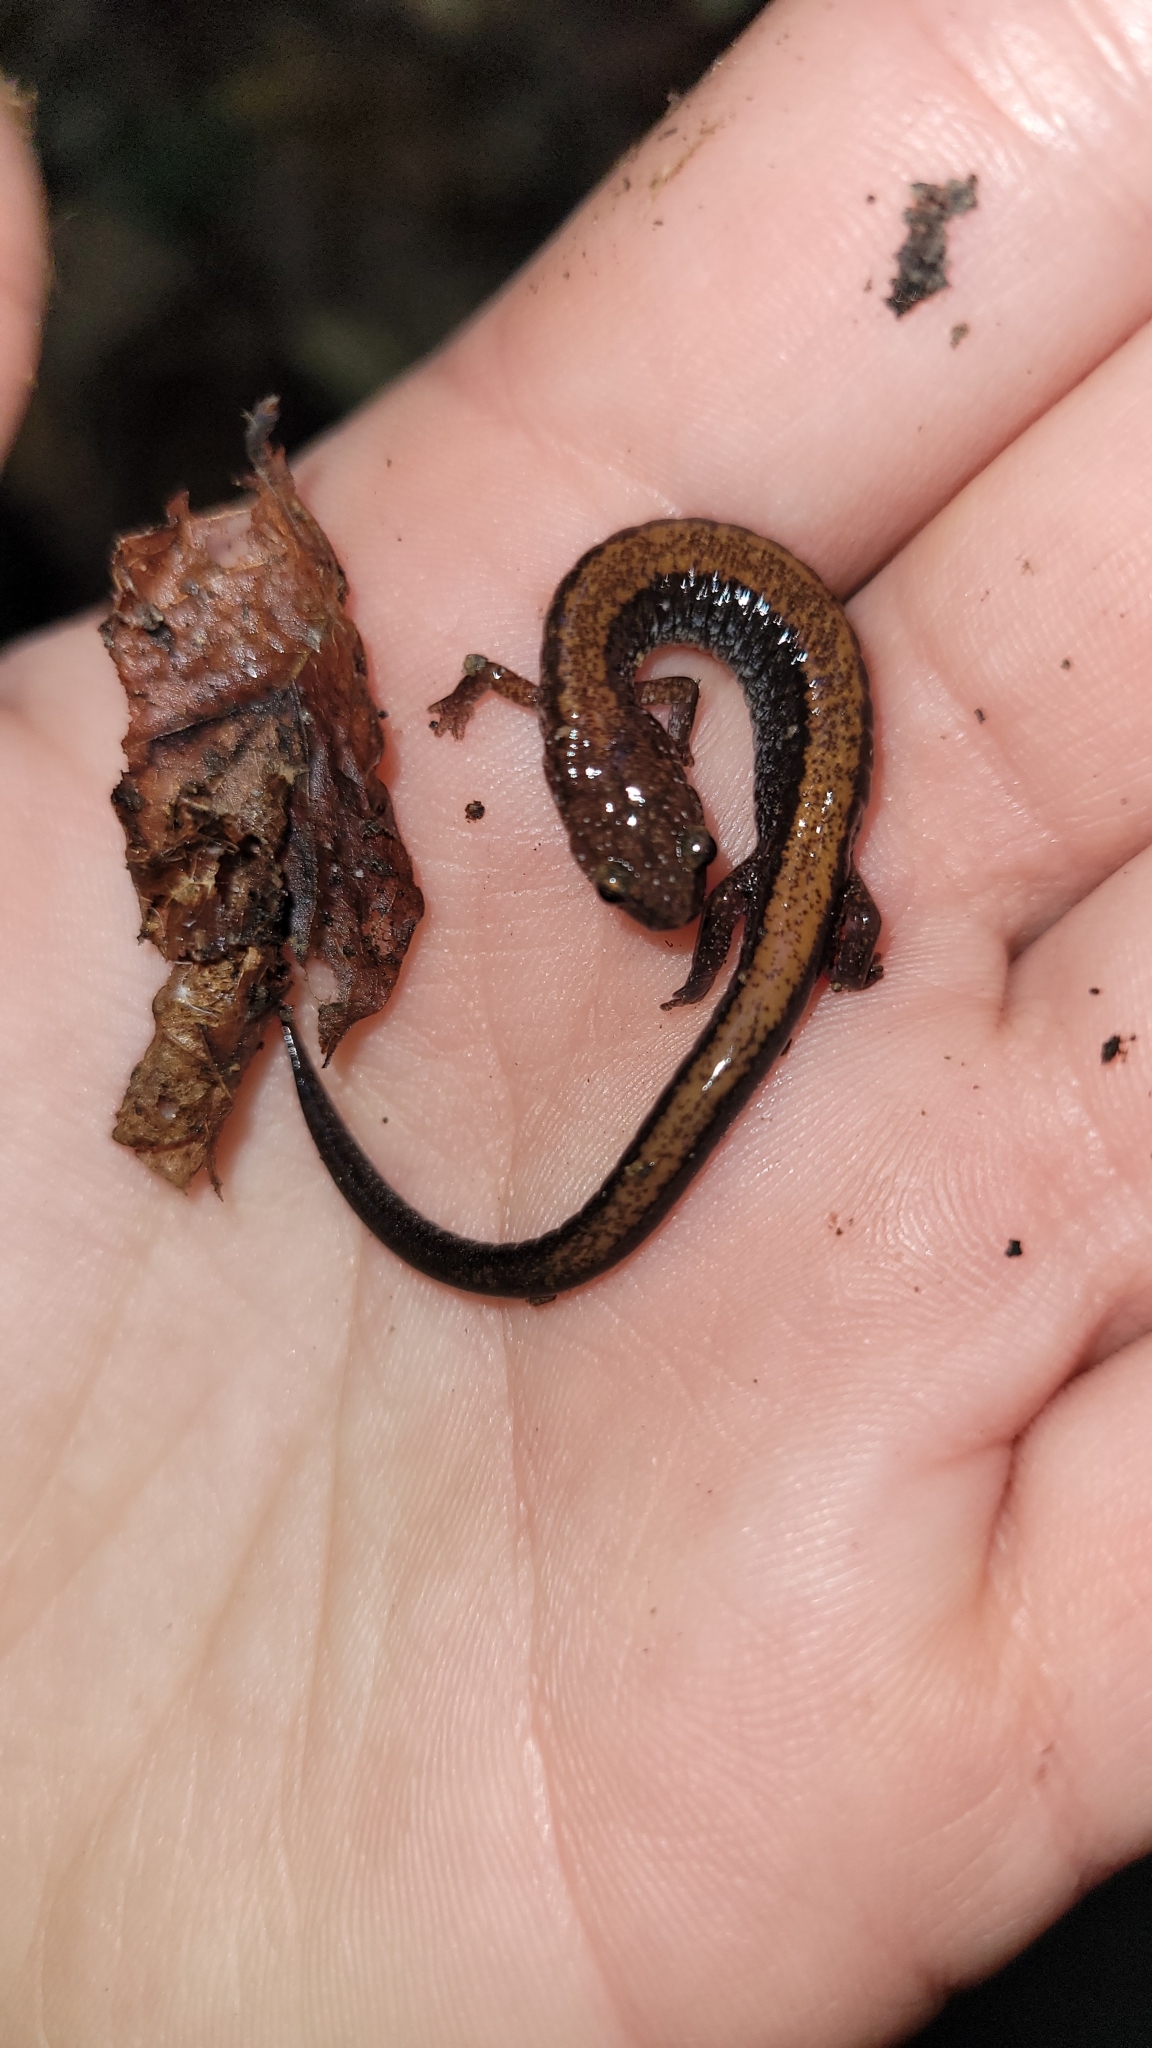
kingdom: Animalia
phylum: Chordata
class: Amphibia
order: Caudata
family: Plethodontidae
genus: Plethodon
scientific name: Plethodon cinereus
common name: Redback salamander
